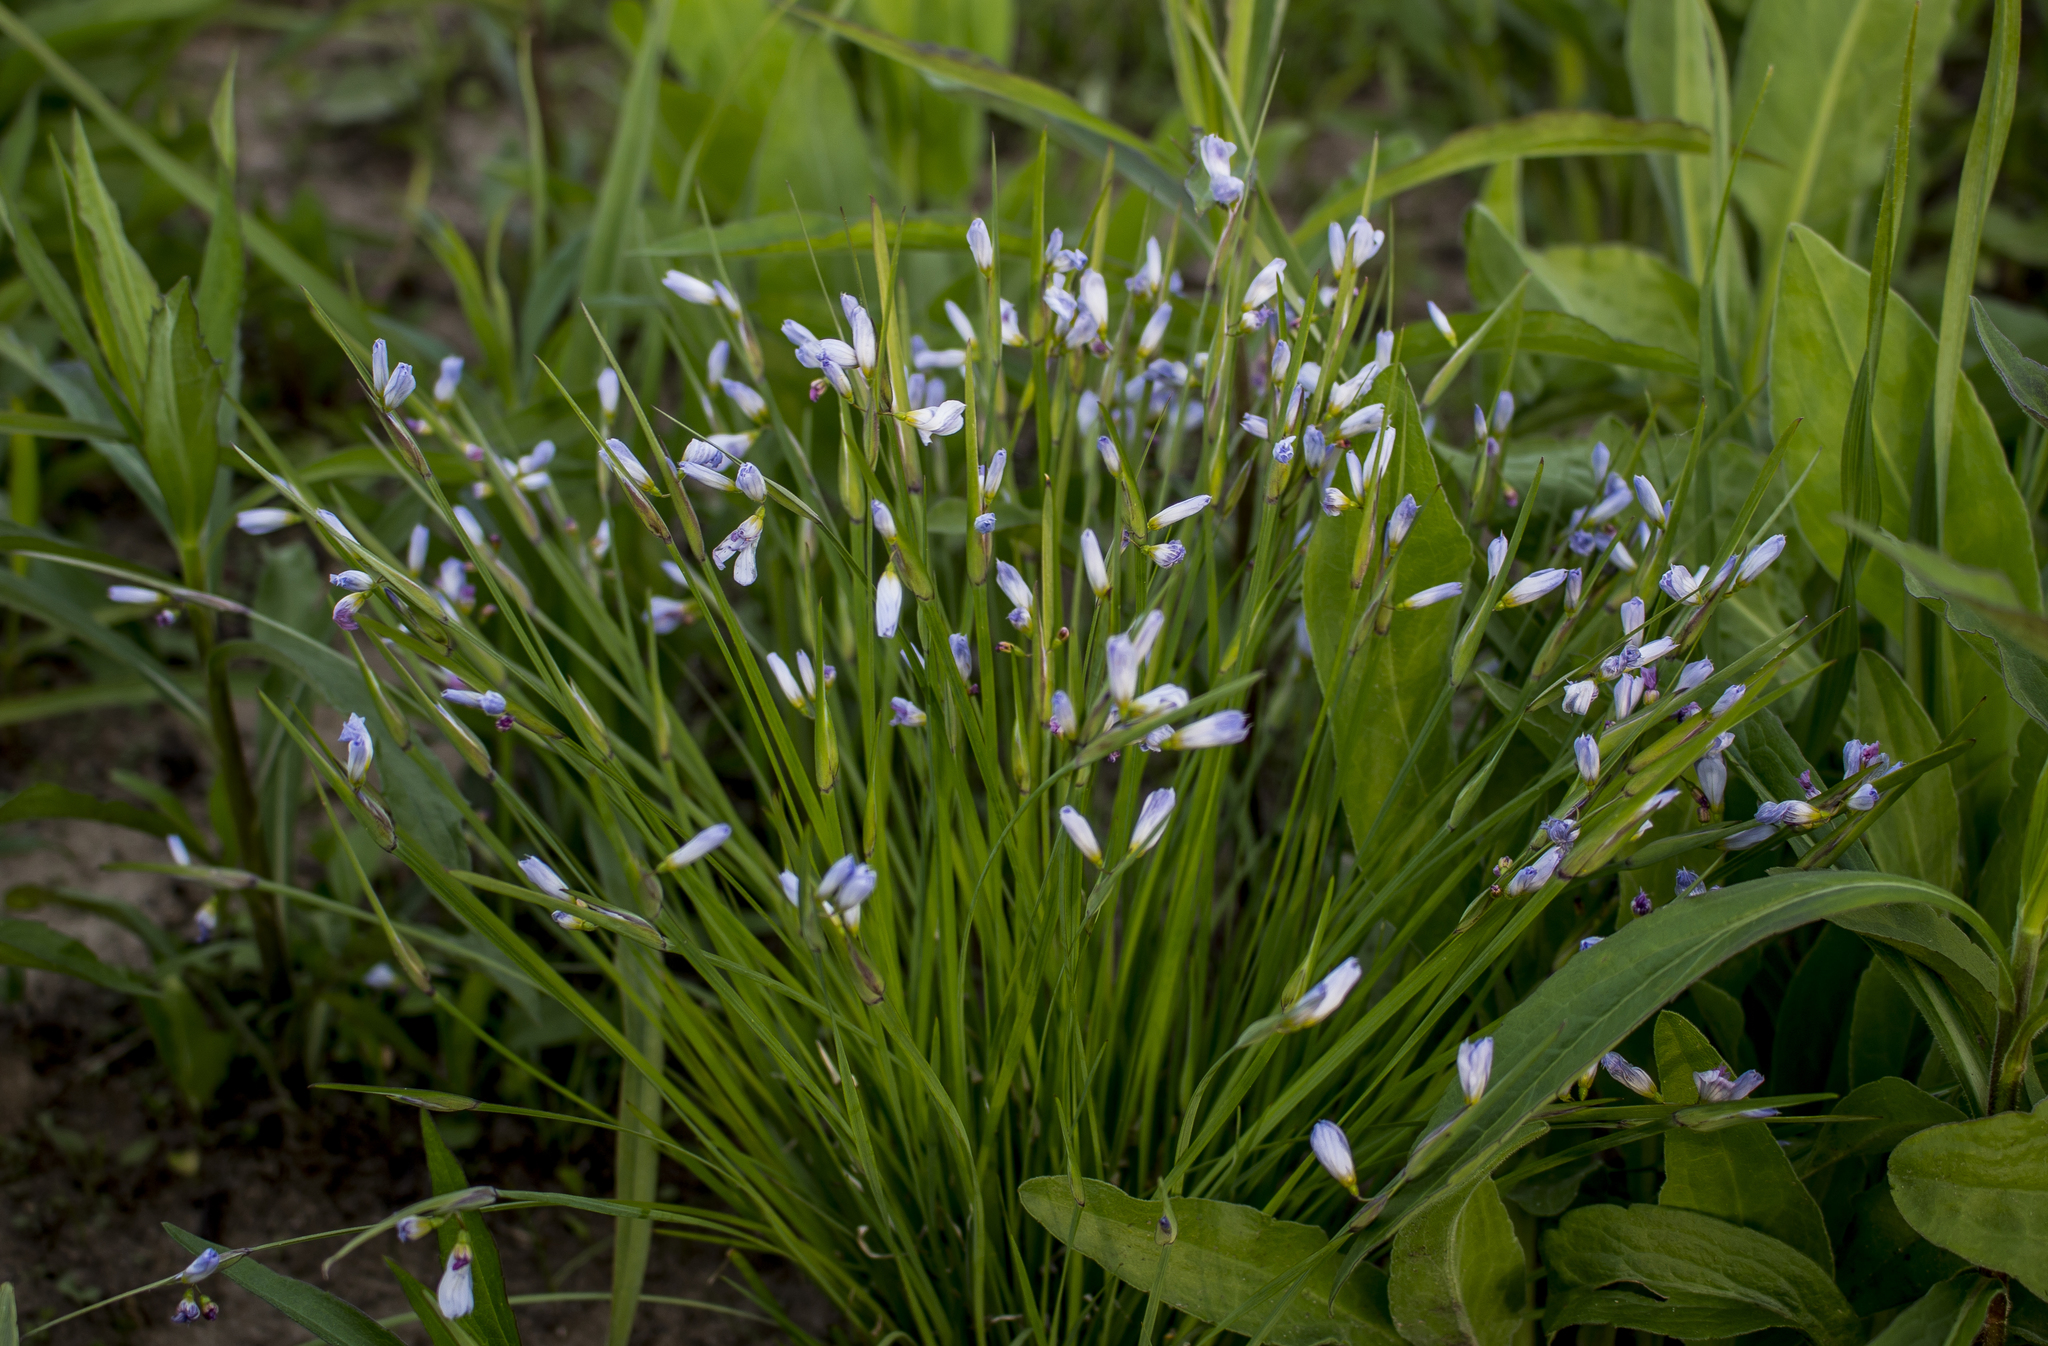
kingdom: Plantae
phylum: Tracheophyta
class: Liliopsida
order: Asparagales
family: Iridaceae
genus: Sisyrinchium
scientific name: Sisyrinchium campestre
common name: Prairie blue-eyed-grass
